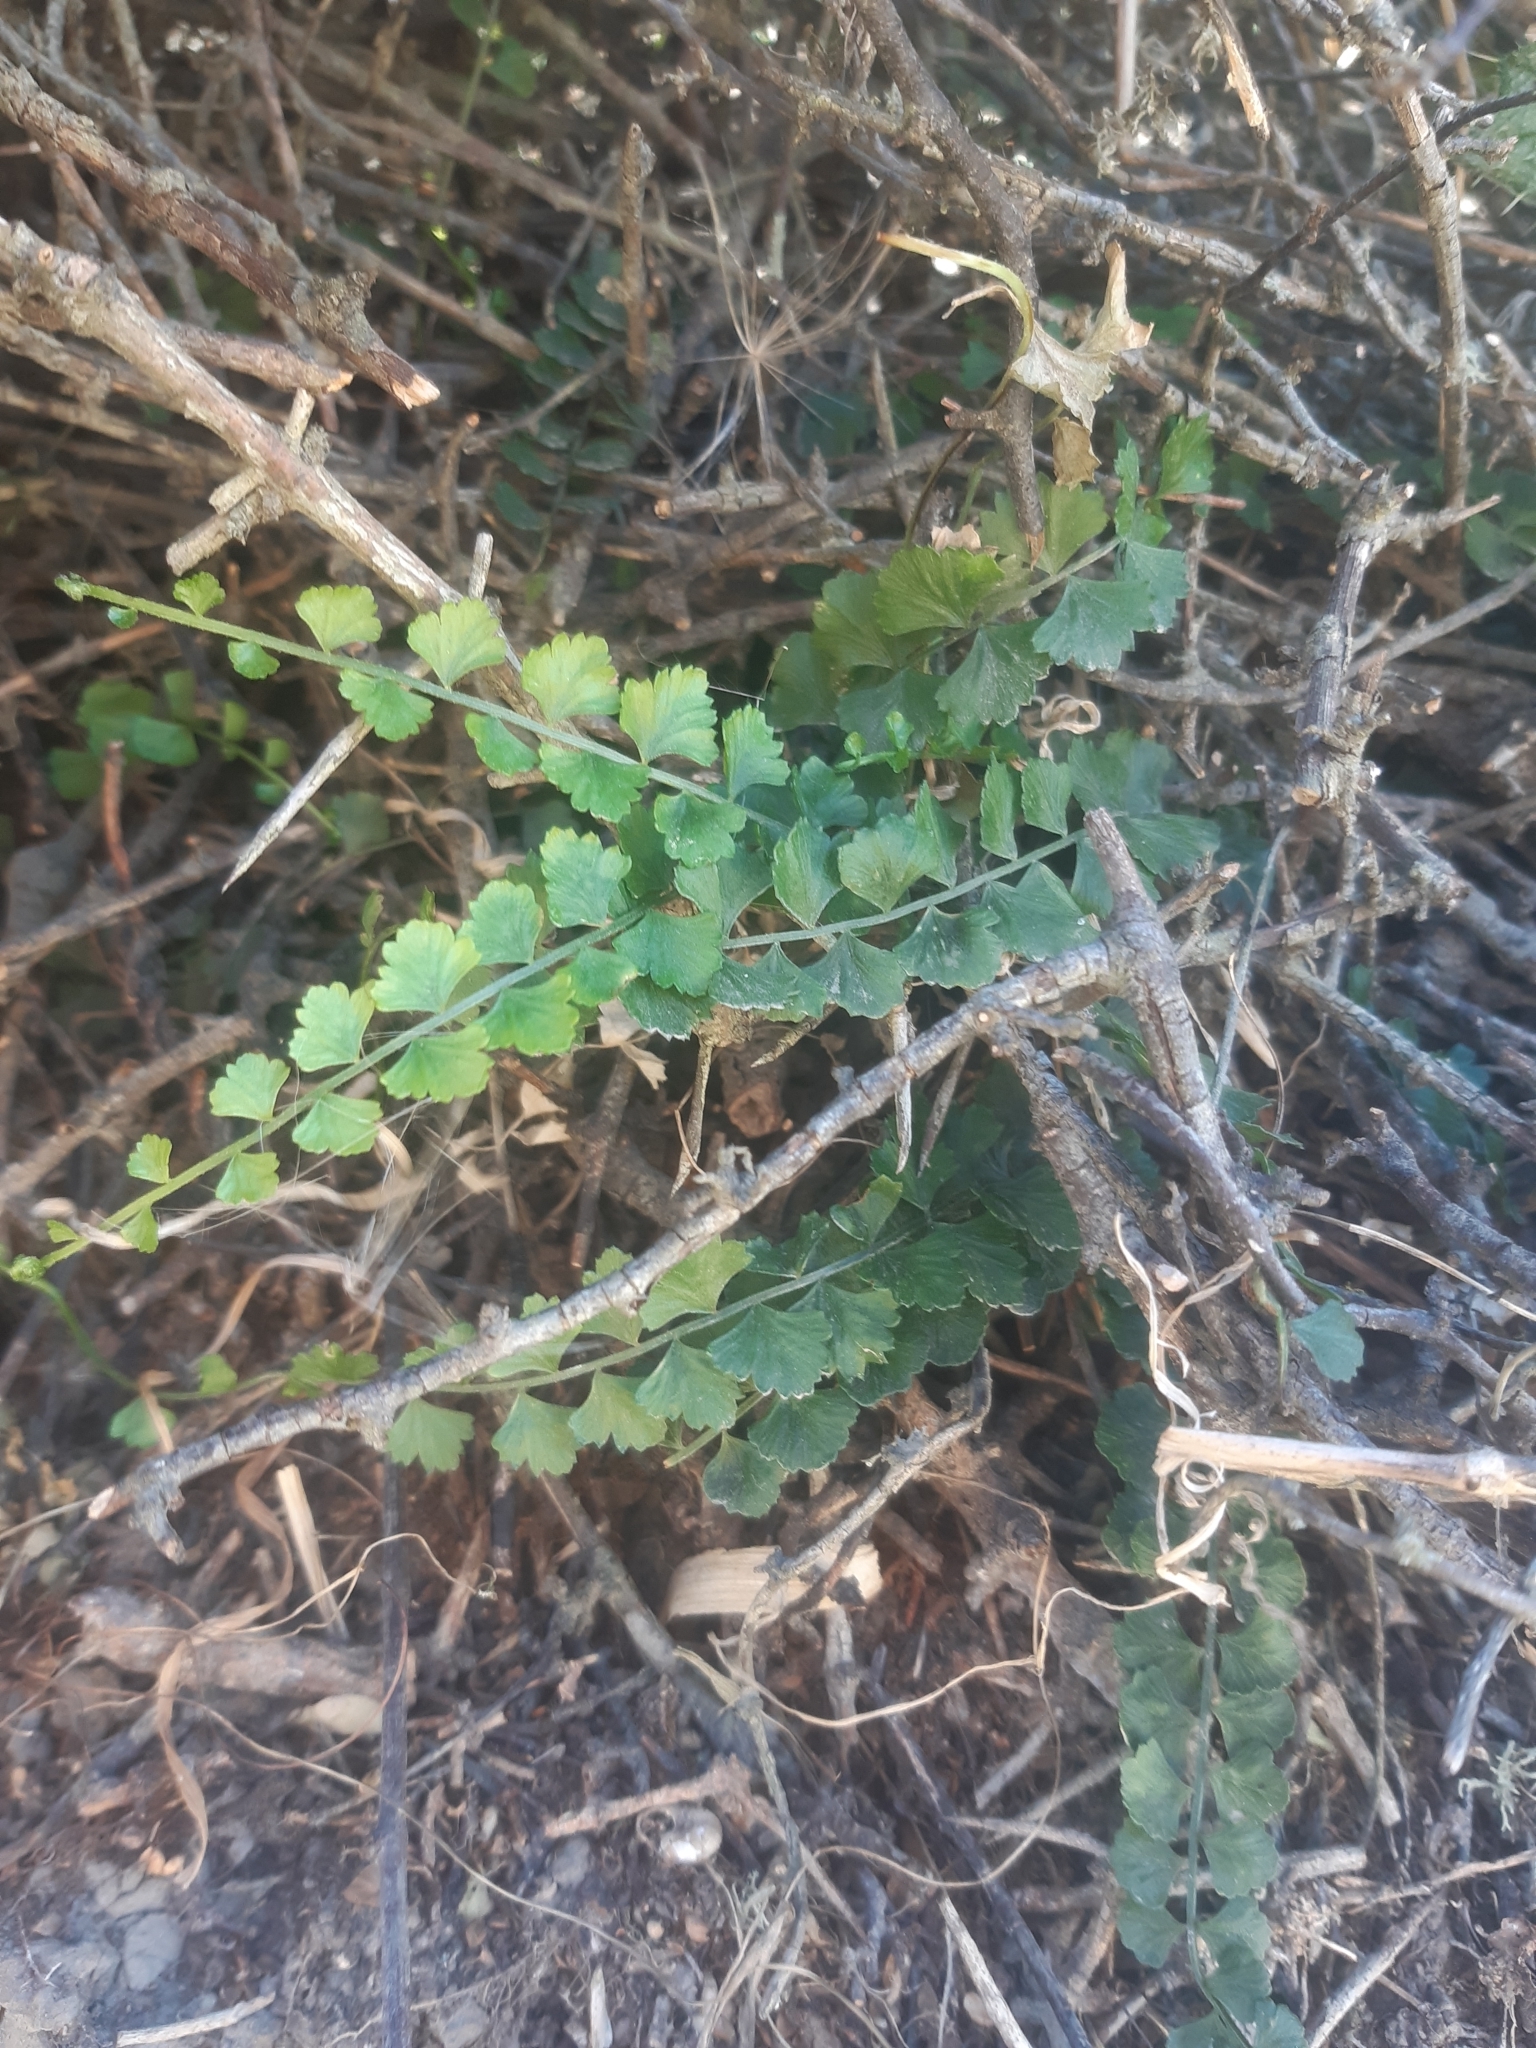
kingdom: Plantae
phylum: Tracheophyta
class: Polypodiopsida
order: Polypodiales
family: Aspleniaceae
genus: Asplenium
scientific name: Asplenium flabellifolium
